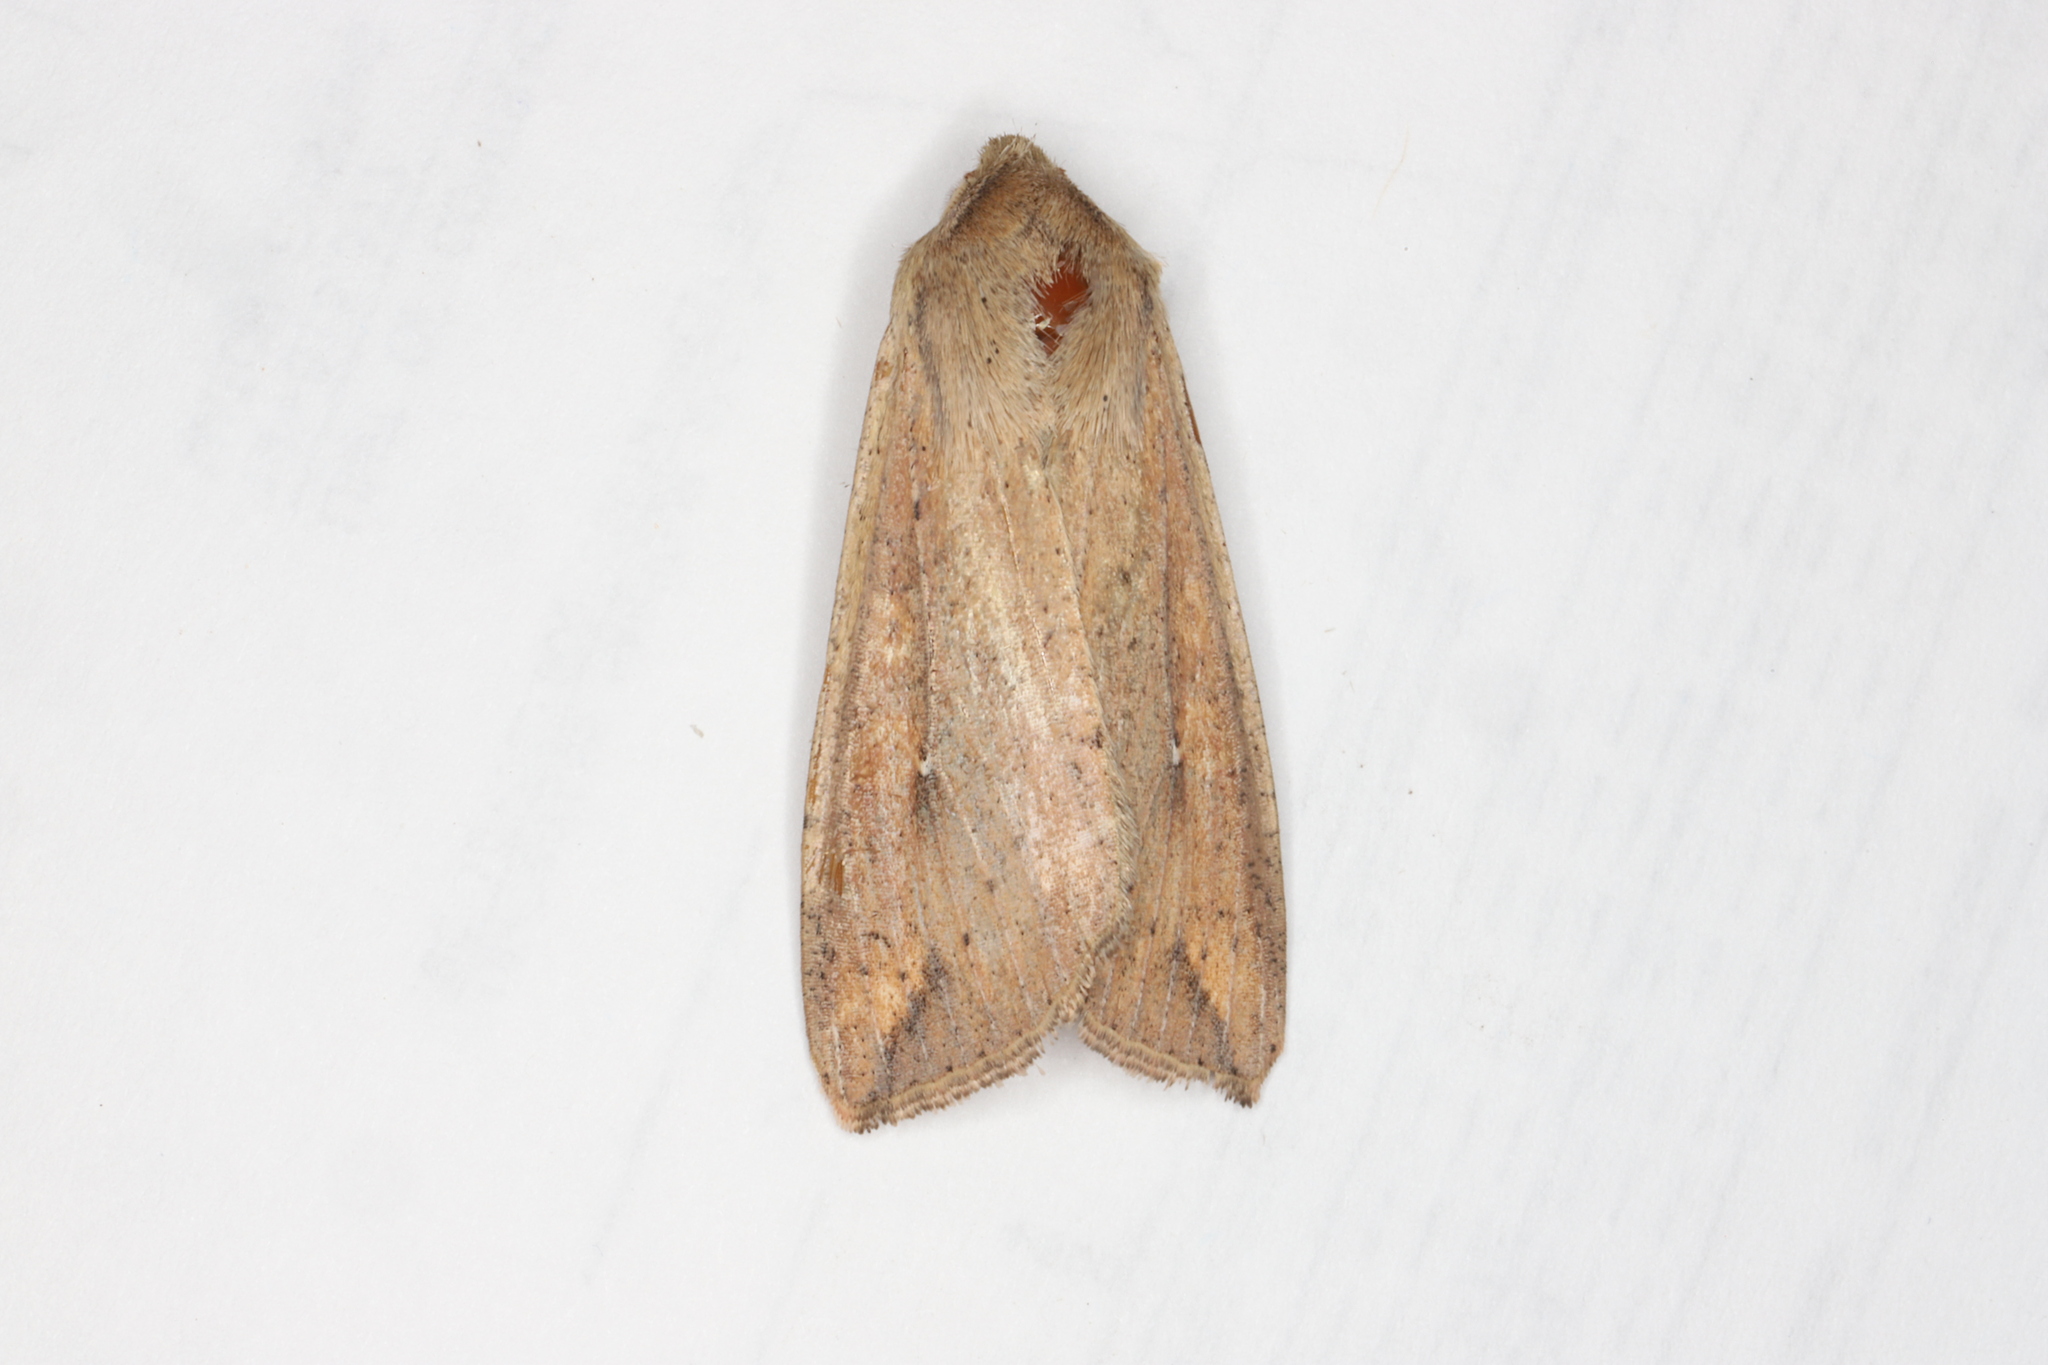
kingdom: Animalia
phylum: Arthropoda
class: Insecta
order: Lepidoptera
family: Noctuidae
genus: Mythimna
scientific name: Mythimna unipuncta
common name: White-speck
